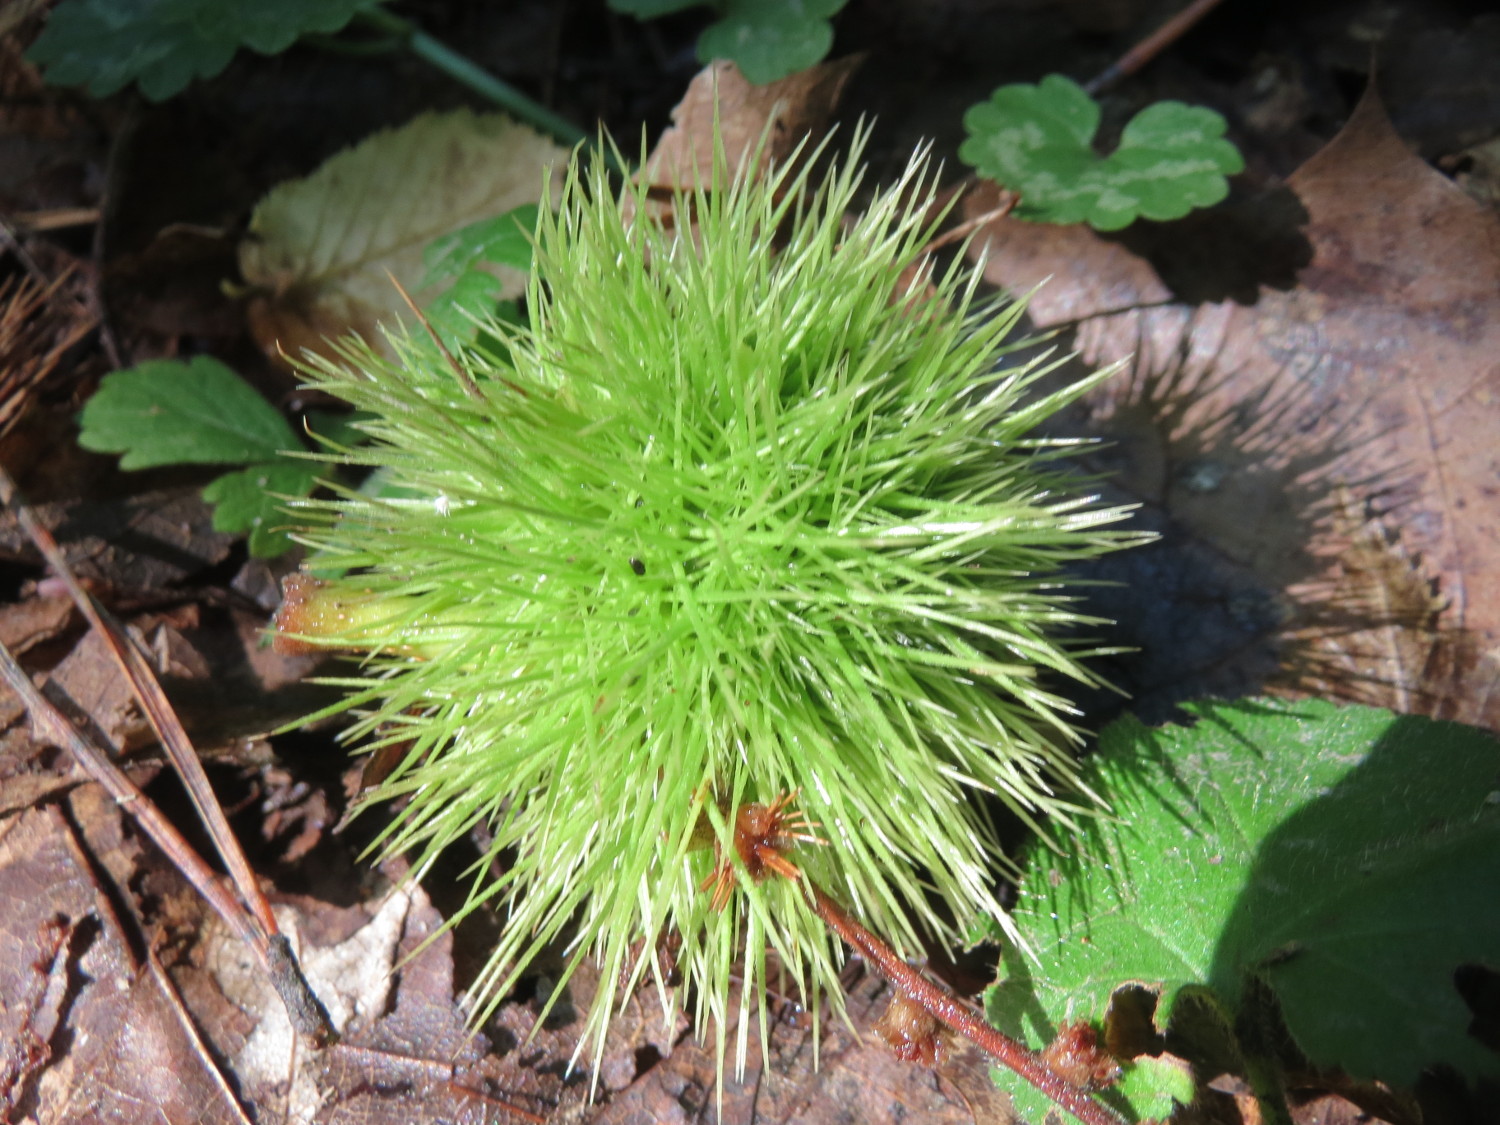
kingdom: Plantae
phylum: Tracheophyta
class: Magnoliopsida
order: Fagales
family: Fagaceae
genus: Castanea
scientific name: Castanea sativa
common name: Sweet chestnut
